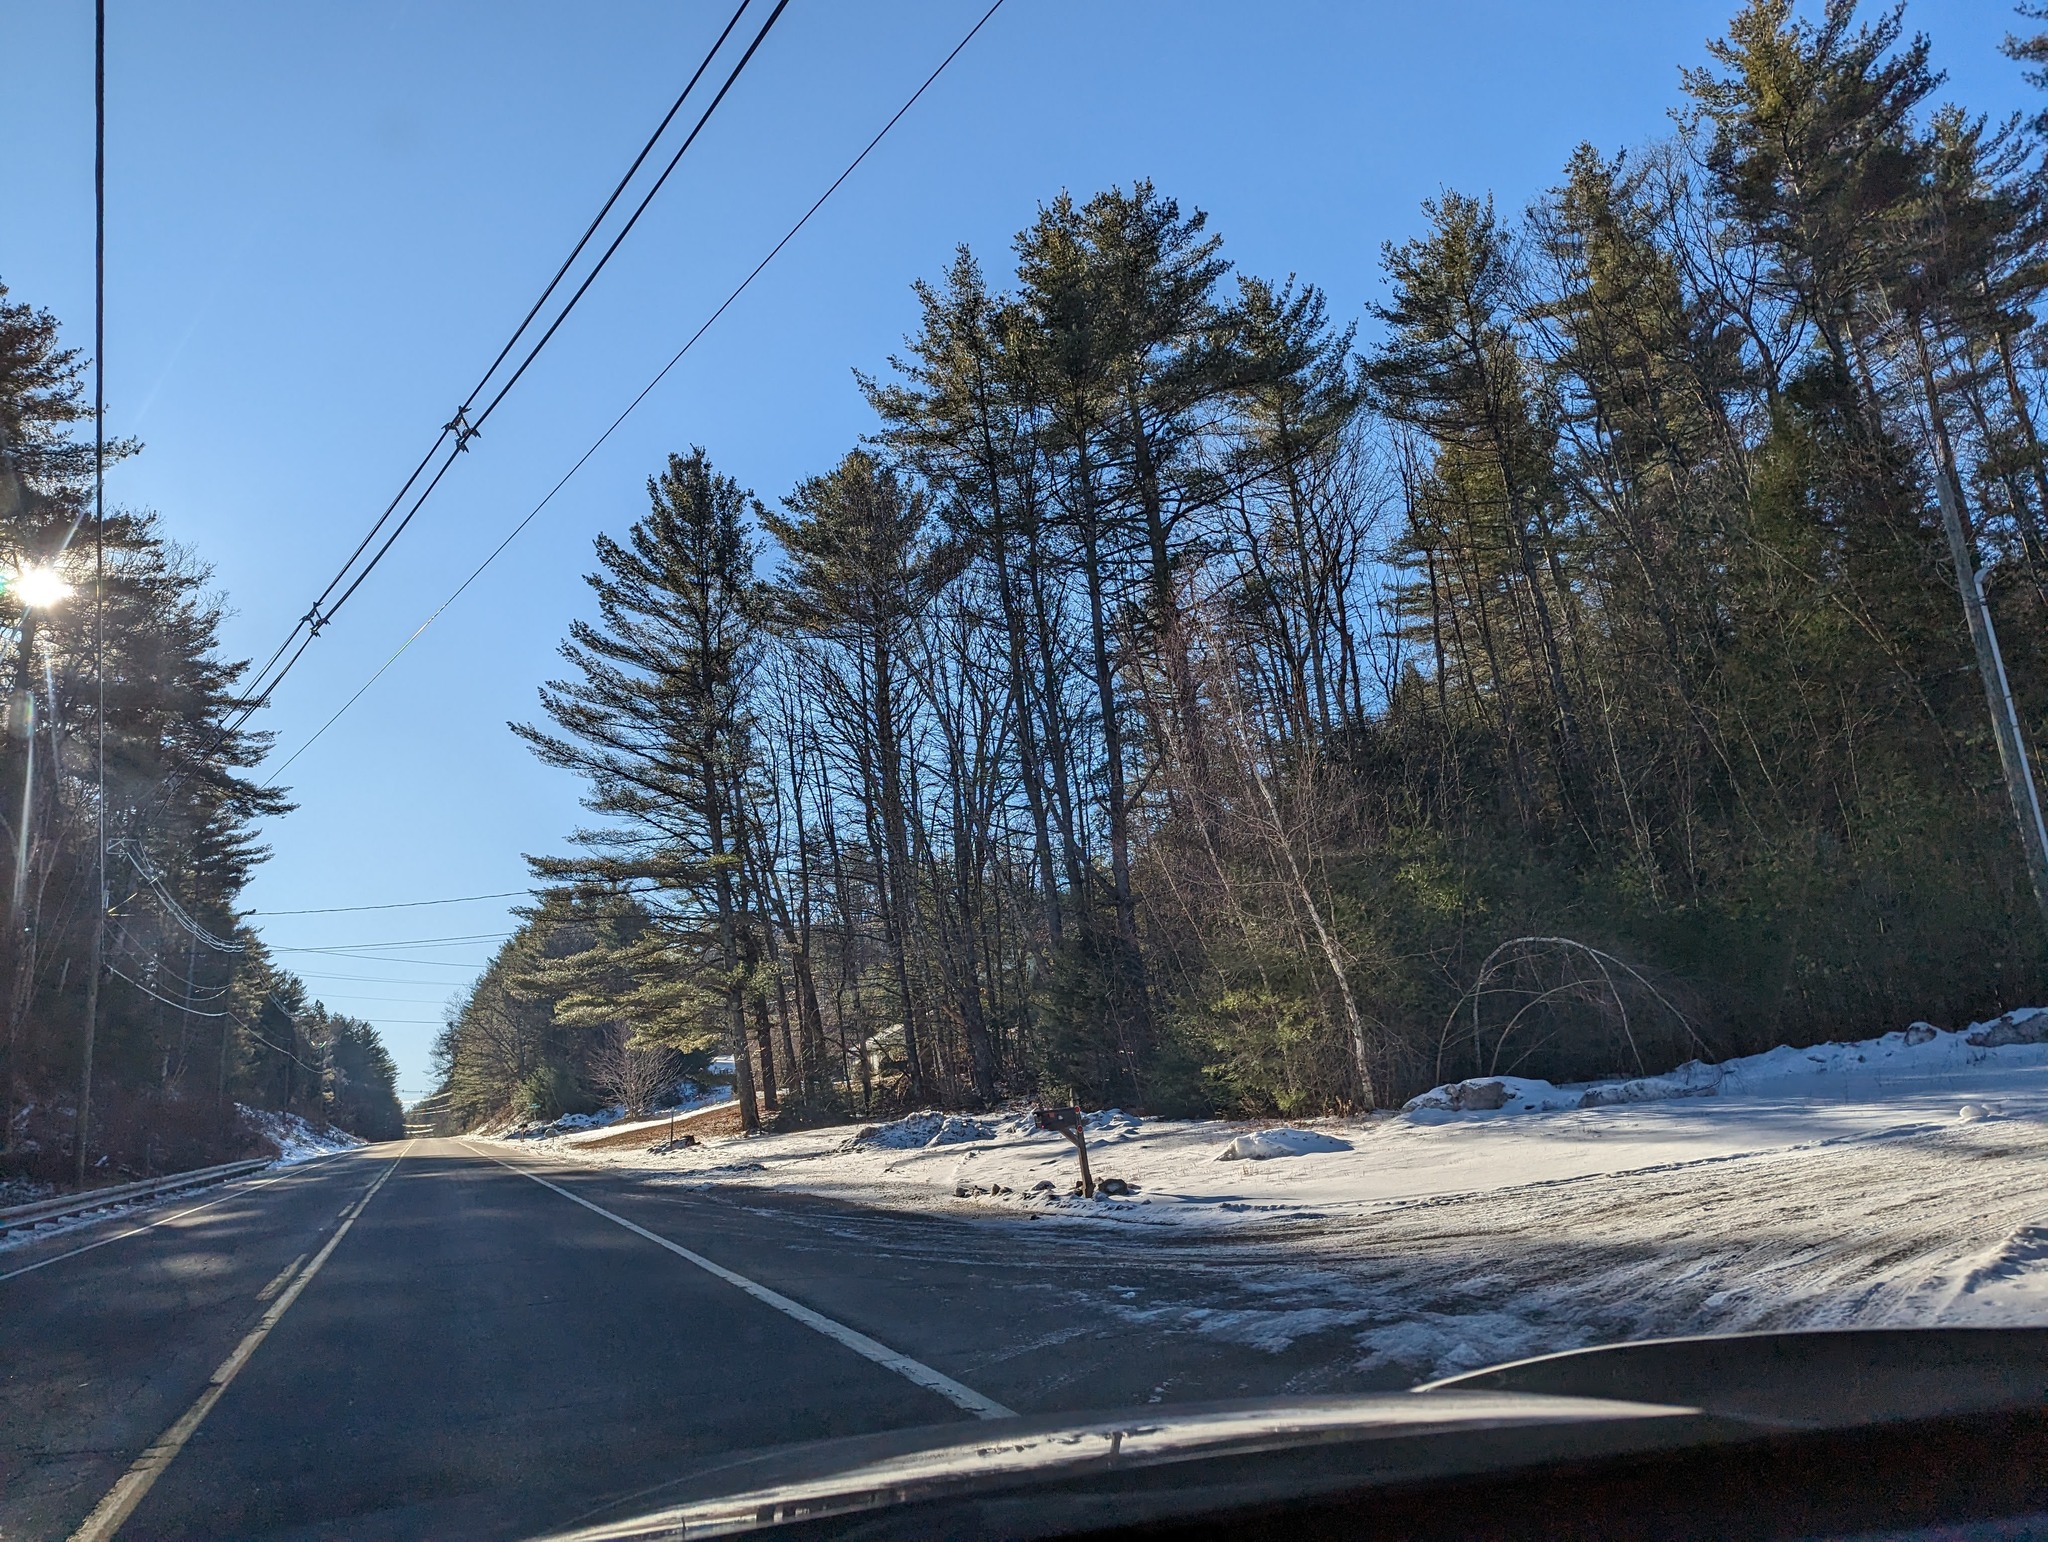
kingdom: Plantae
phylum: Tracheophyta
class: Pinopsida
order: Pinales
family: Pinaceae
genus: Pinus
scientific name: Pinus strobus
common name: Weymouth pine
